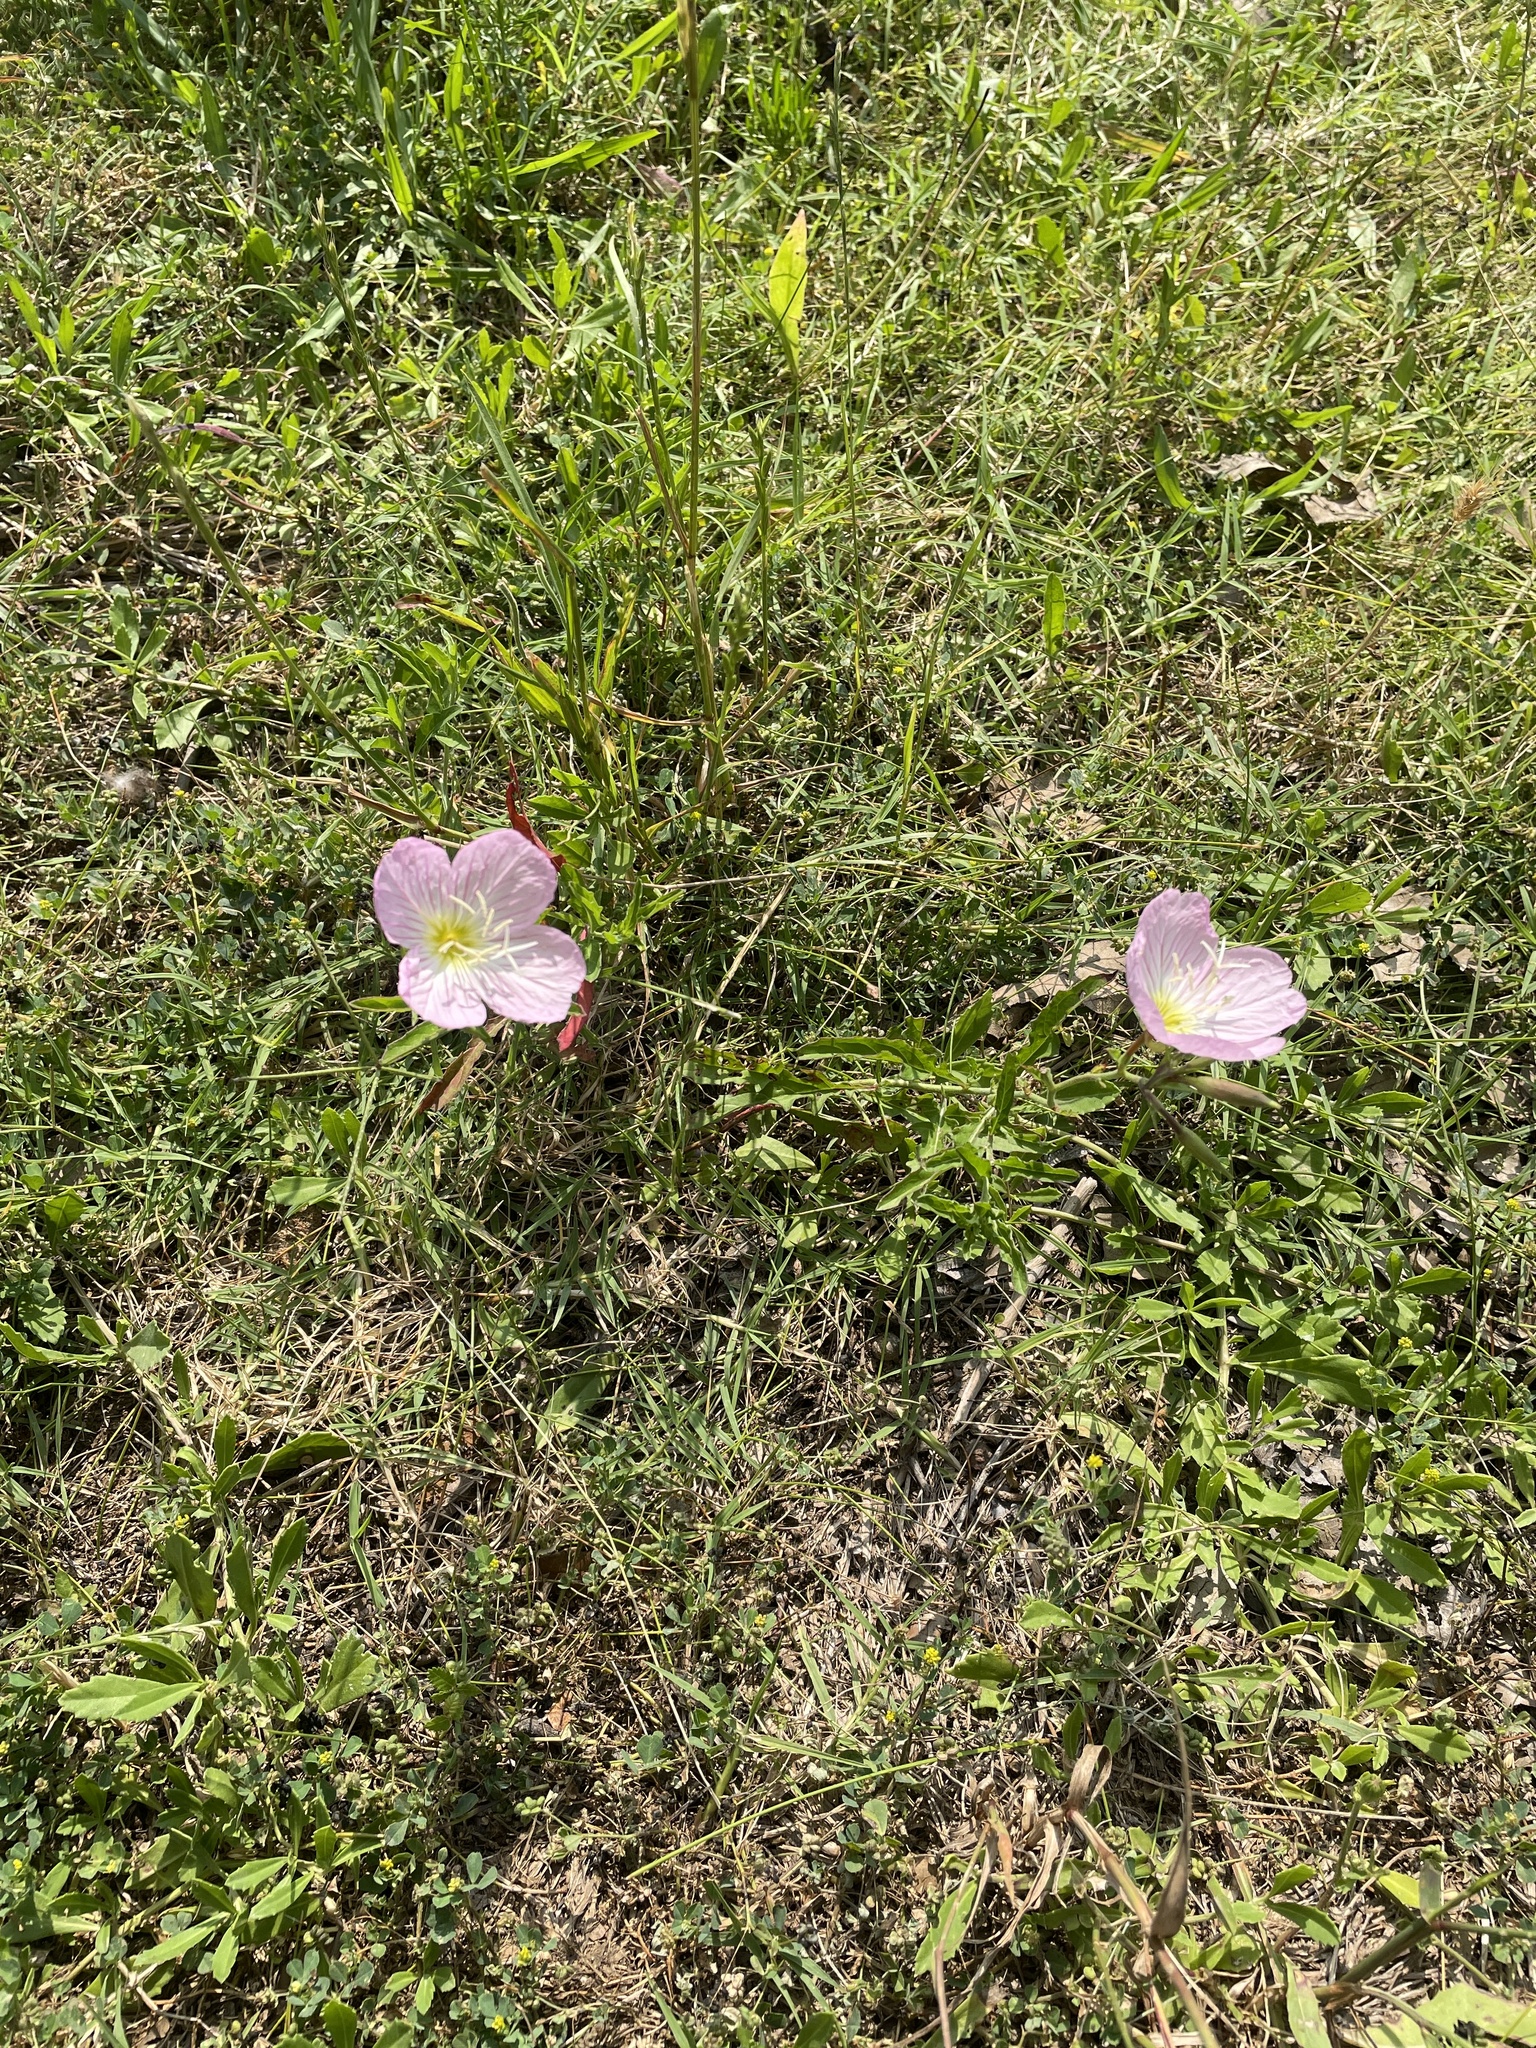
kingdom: Plantae
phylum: Tracheophyta
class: Magnoliopsida
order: Myrtales
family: Onagraceae
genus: Oenothera
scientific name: Oenothera speciosa
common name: White evening-primrose
